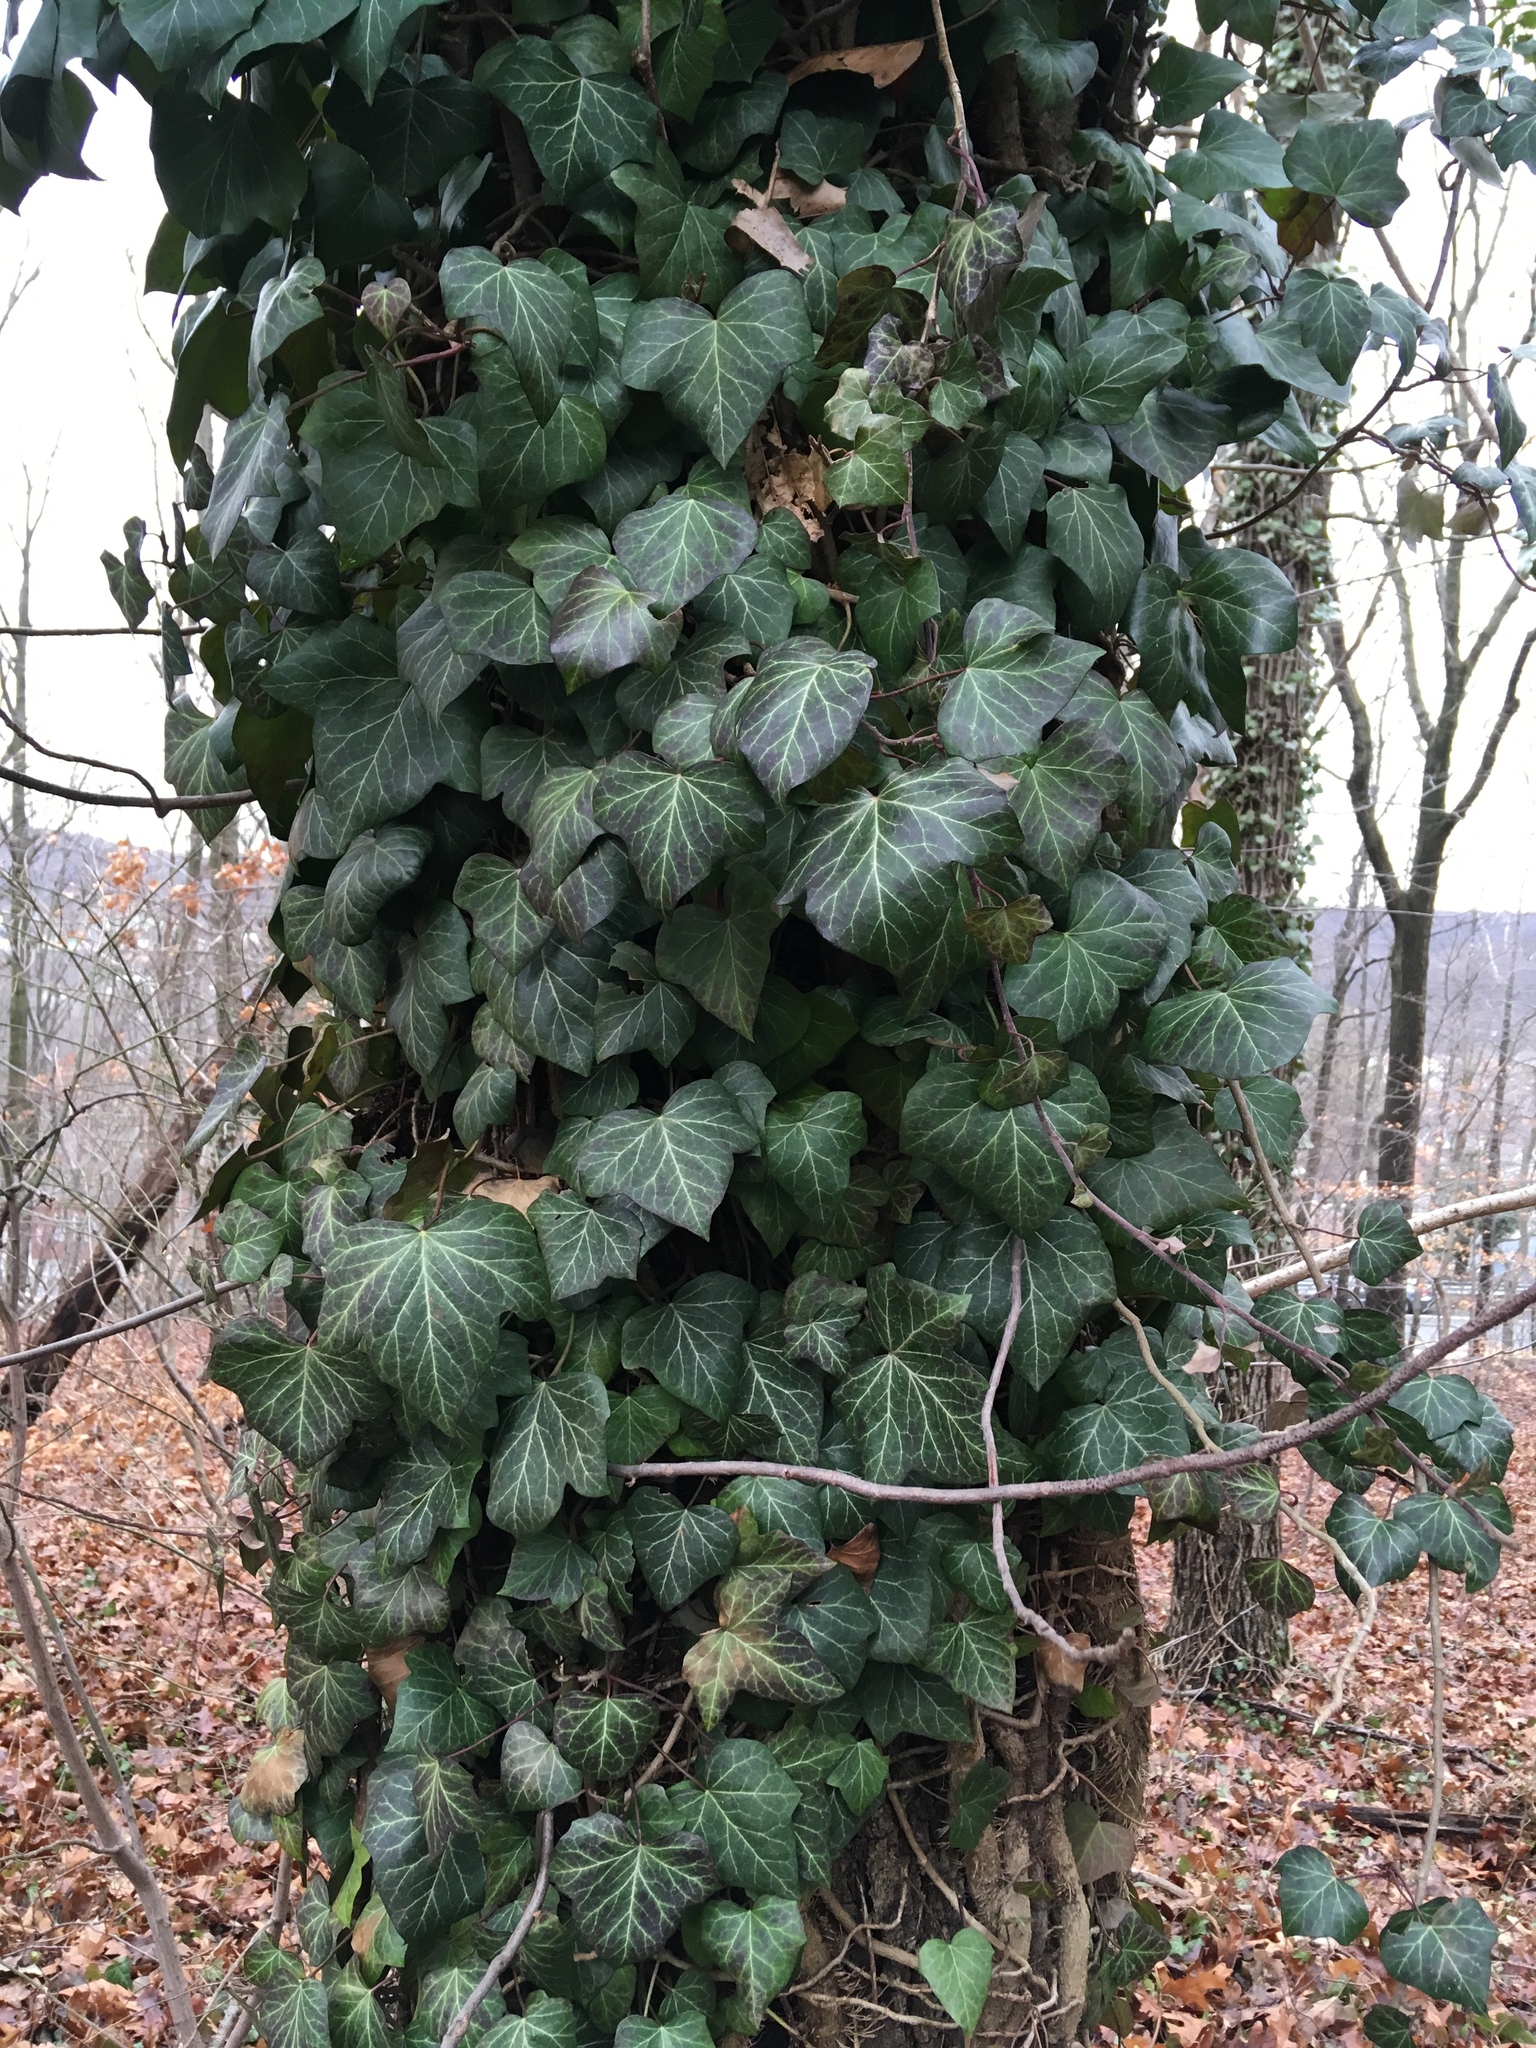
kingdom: Plantae
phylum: Tracheophyta
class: Magnoliopsida
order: Apiales
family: Araliaceae
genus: Hedera
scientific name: Hedera helix
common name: Ivy
